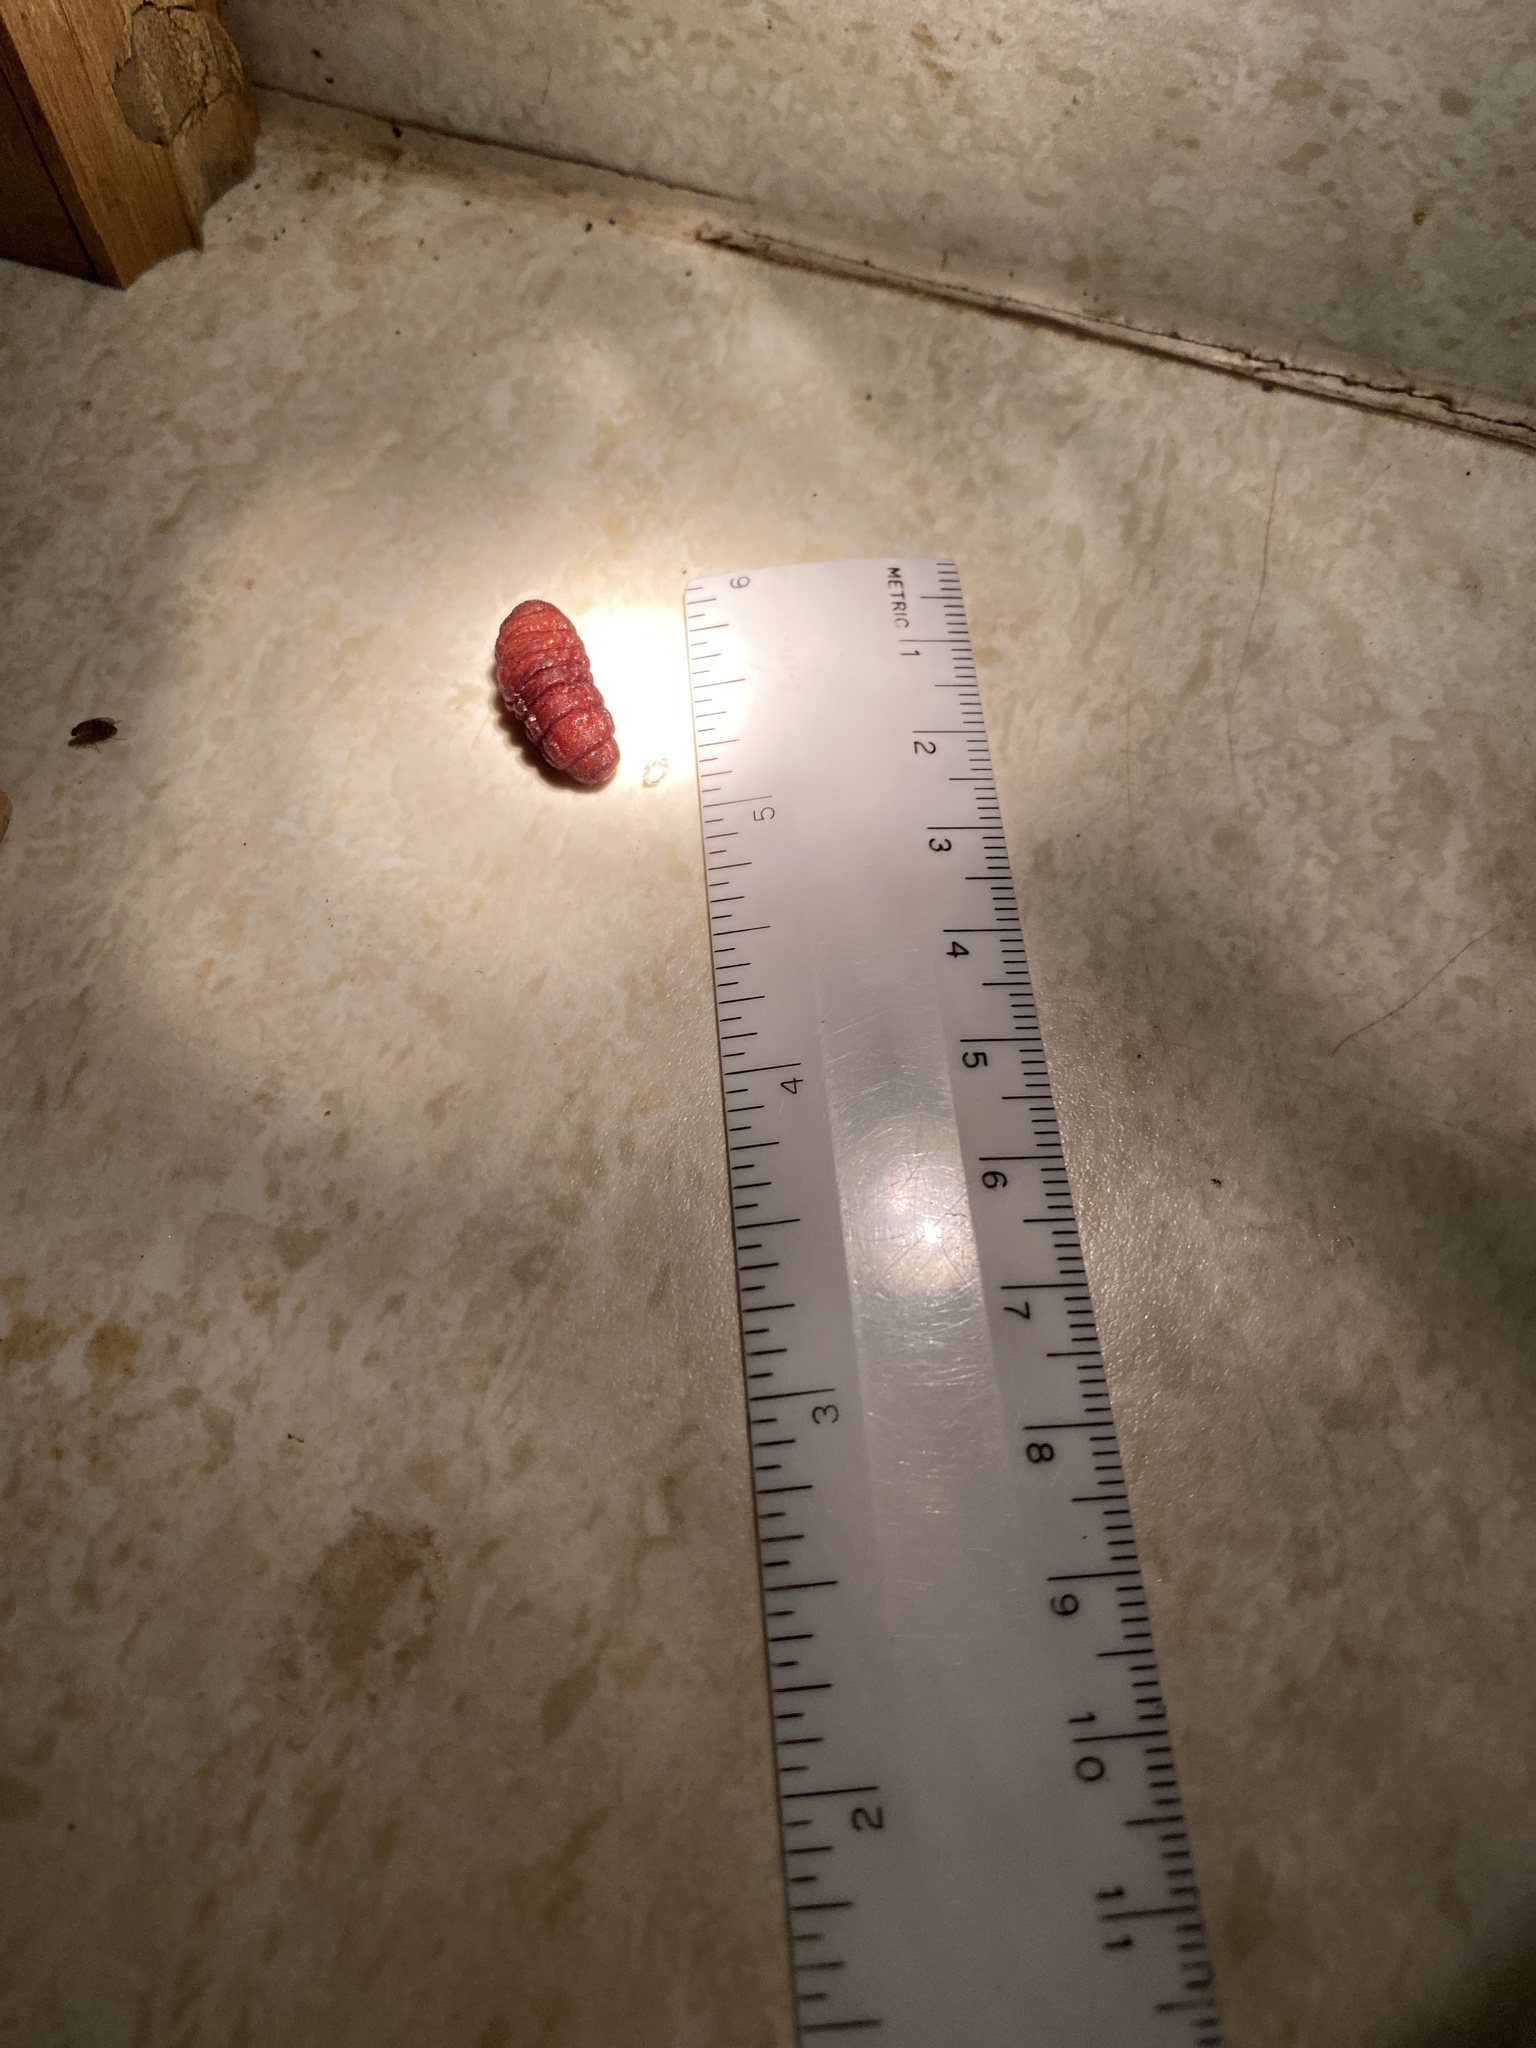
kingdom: Animalia
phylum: Arthropoda
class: Insecta
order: Diptera
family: Oestridae
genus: Cuterebra
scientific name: Cuterebra
